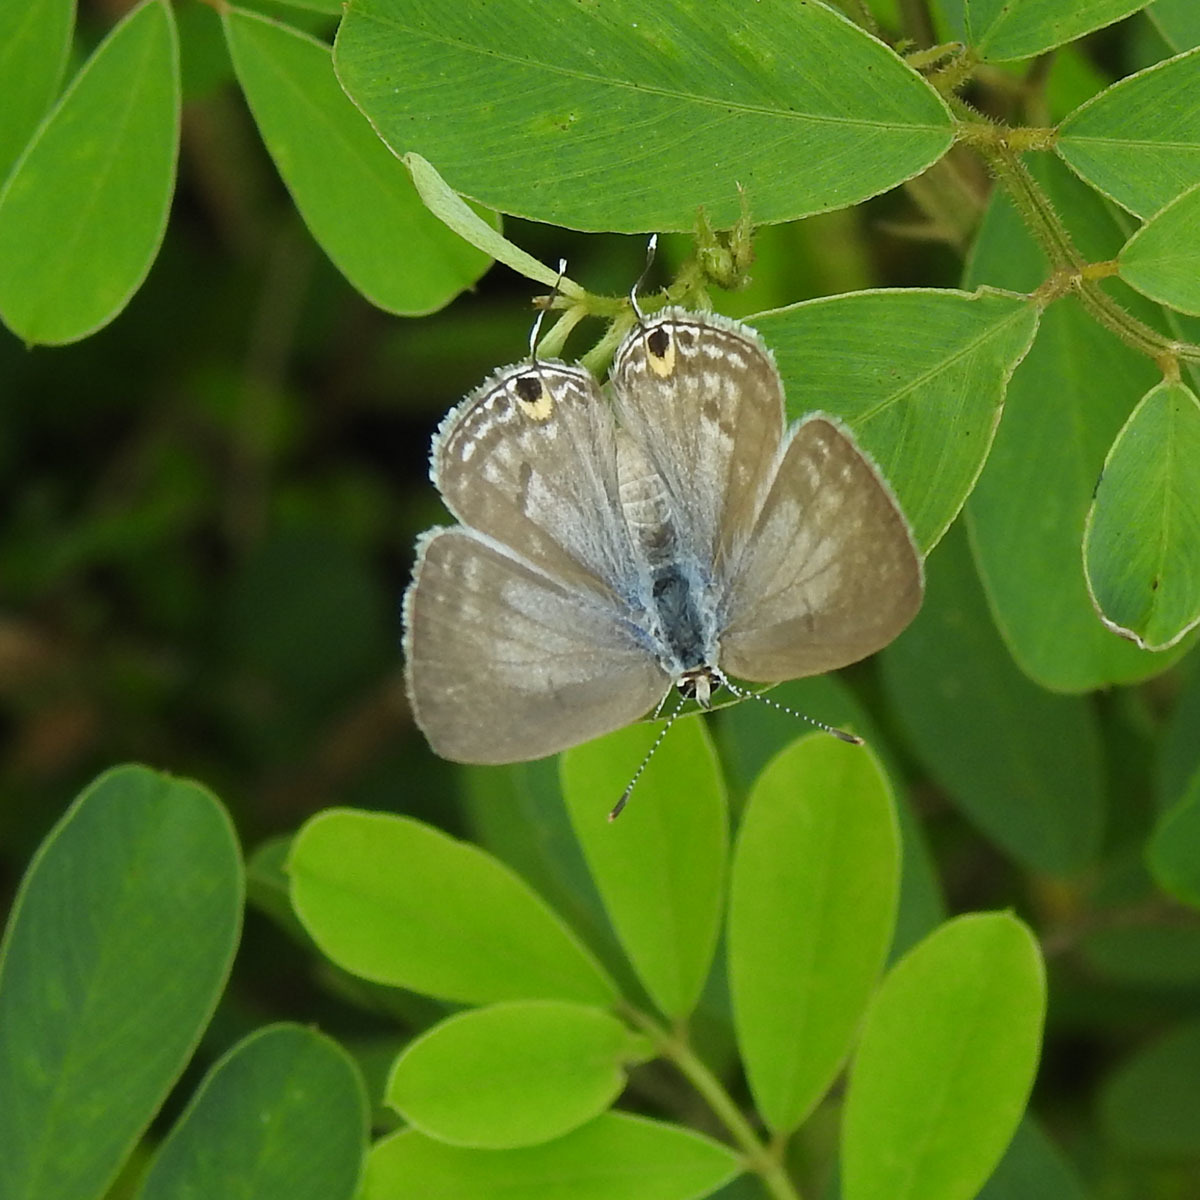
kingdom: Animalia
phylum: Arthropoda
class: Insecta
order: Lepidoptera
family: Lycaenidae
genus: Catochrysops
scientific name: Catochrysops strabo
